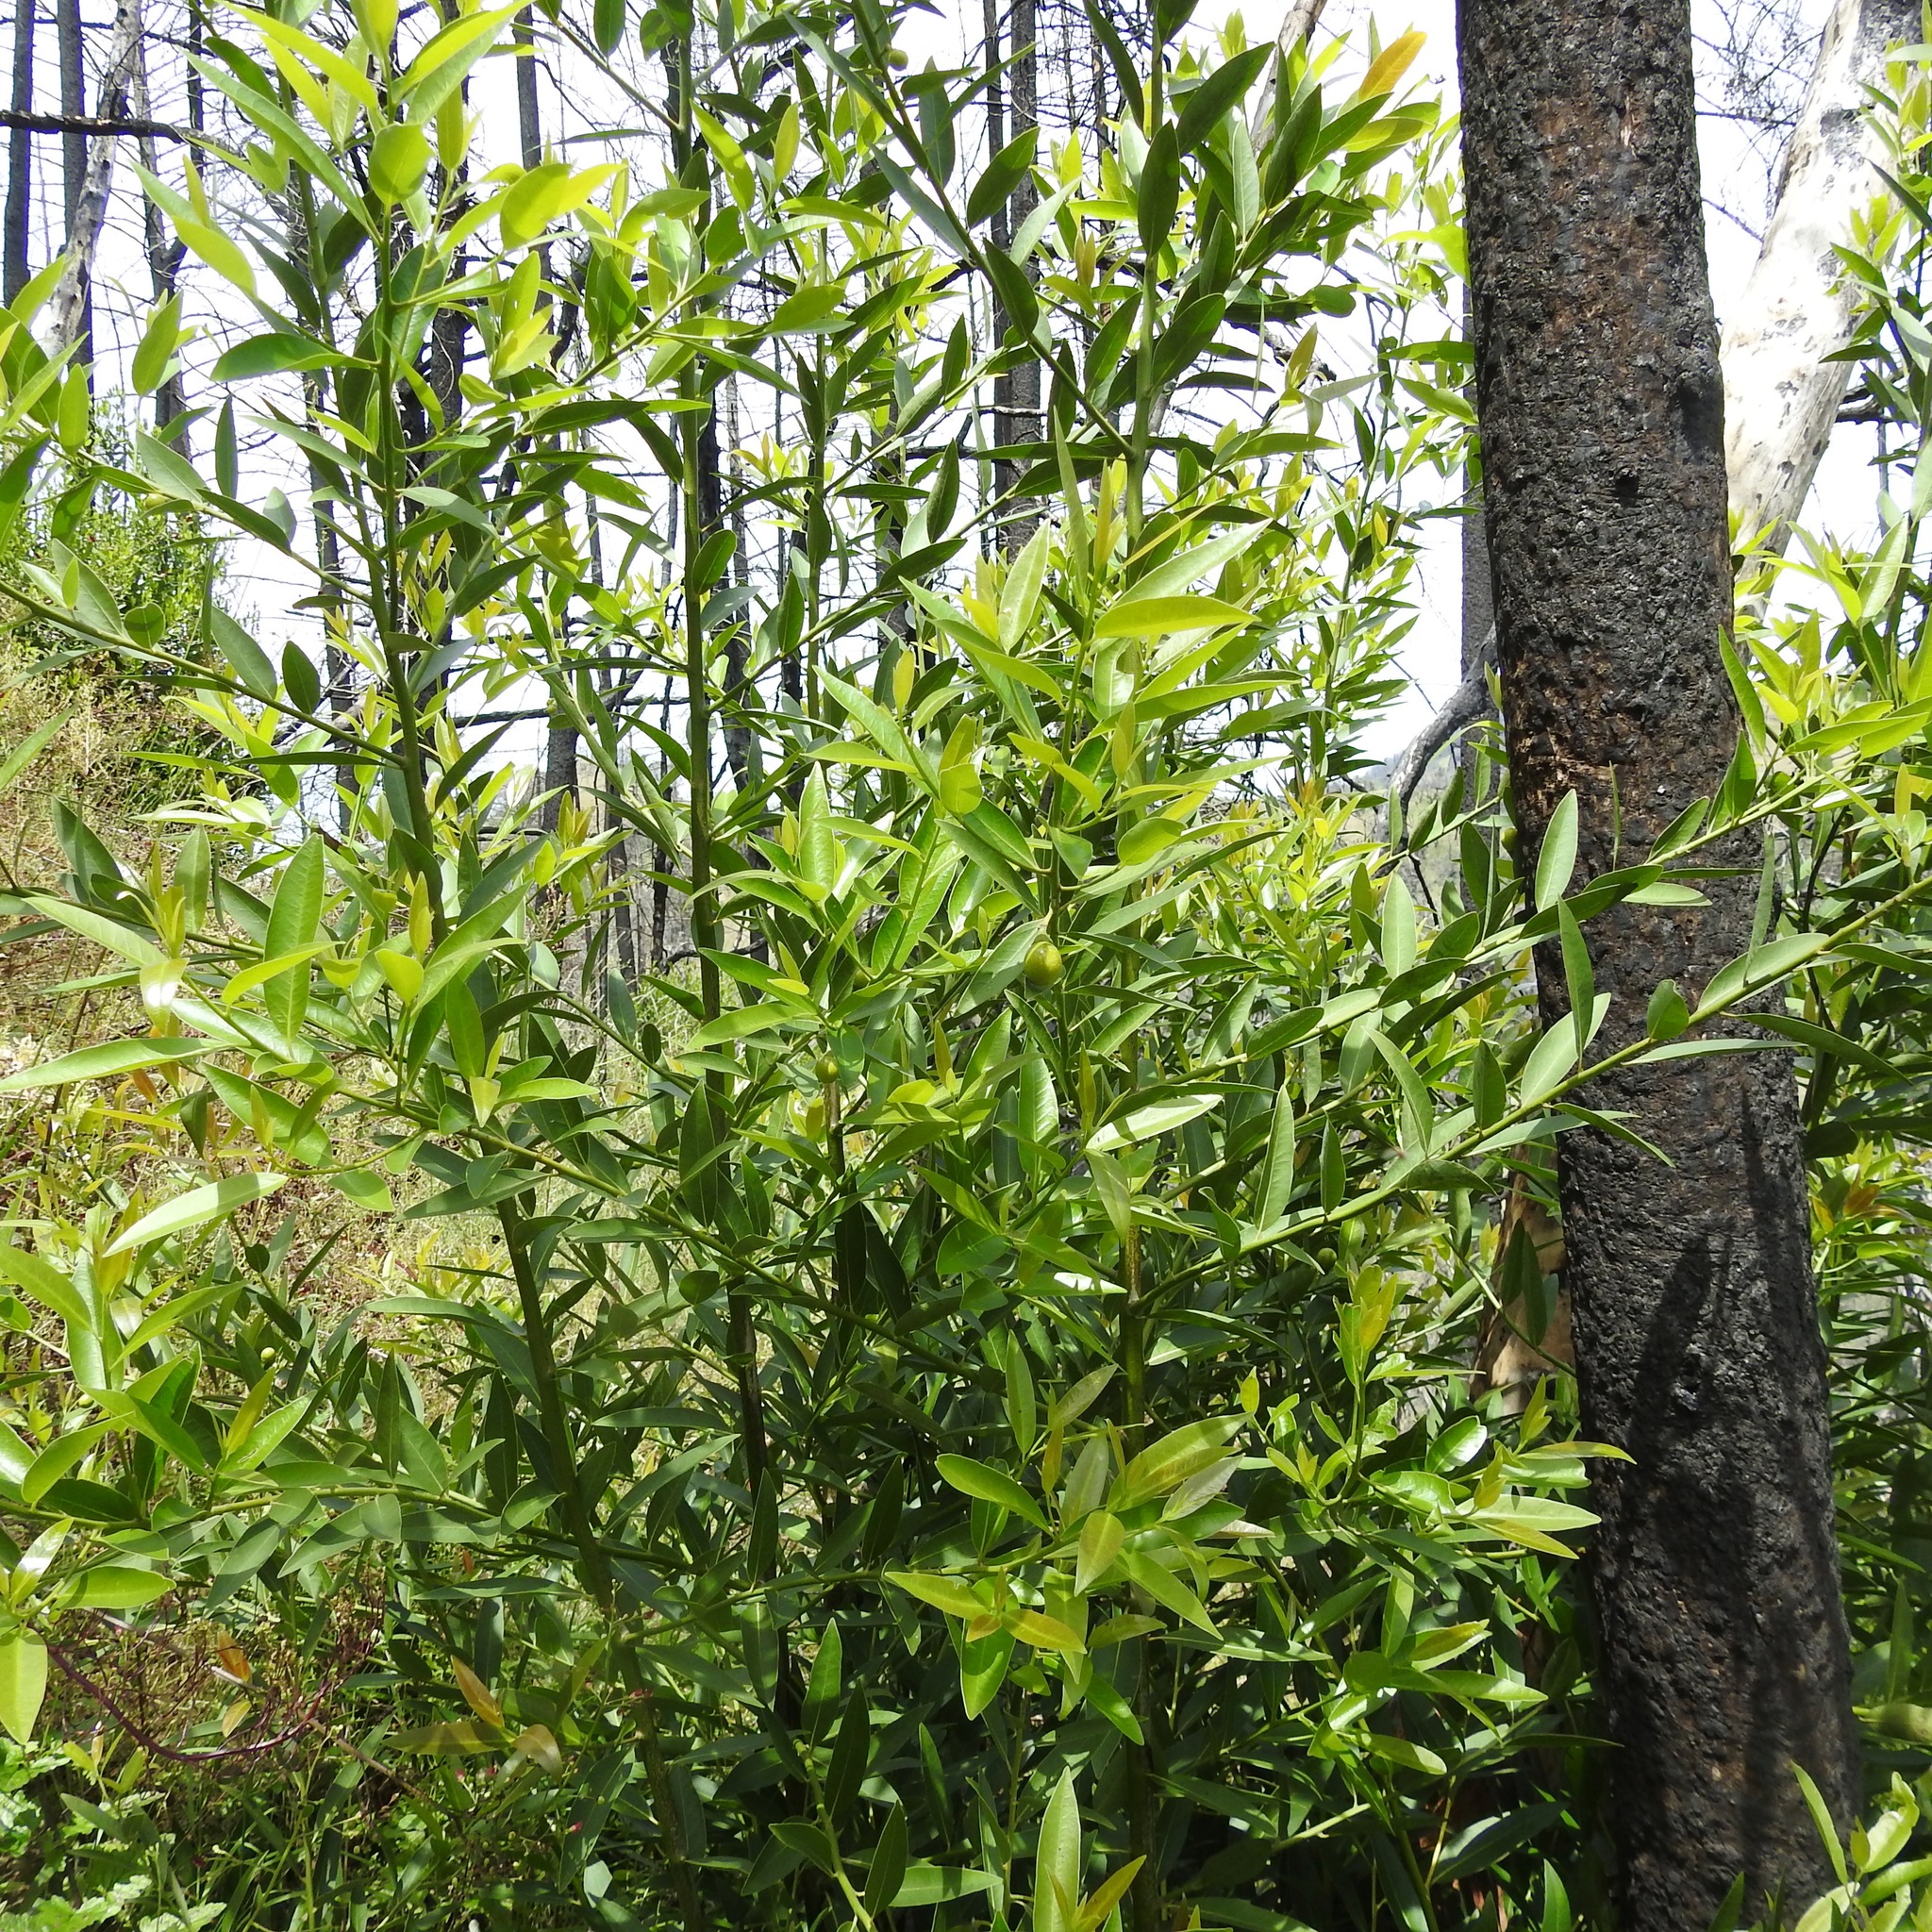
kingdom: Plantae
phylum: Tracheophyta
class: Magnoliopsida
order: Laurales
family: Lauraceae
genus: Umbellularia
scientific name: Umbellularia californica
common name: California bay
